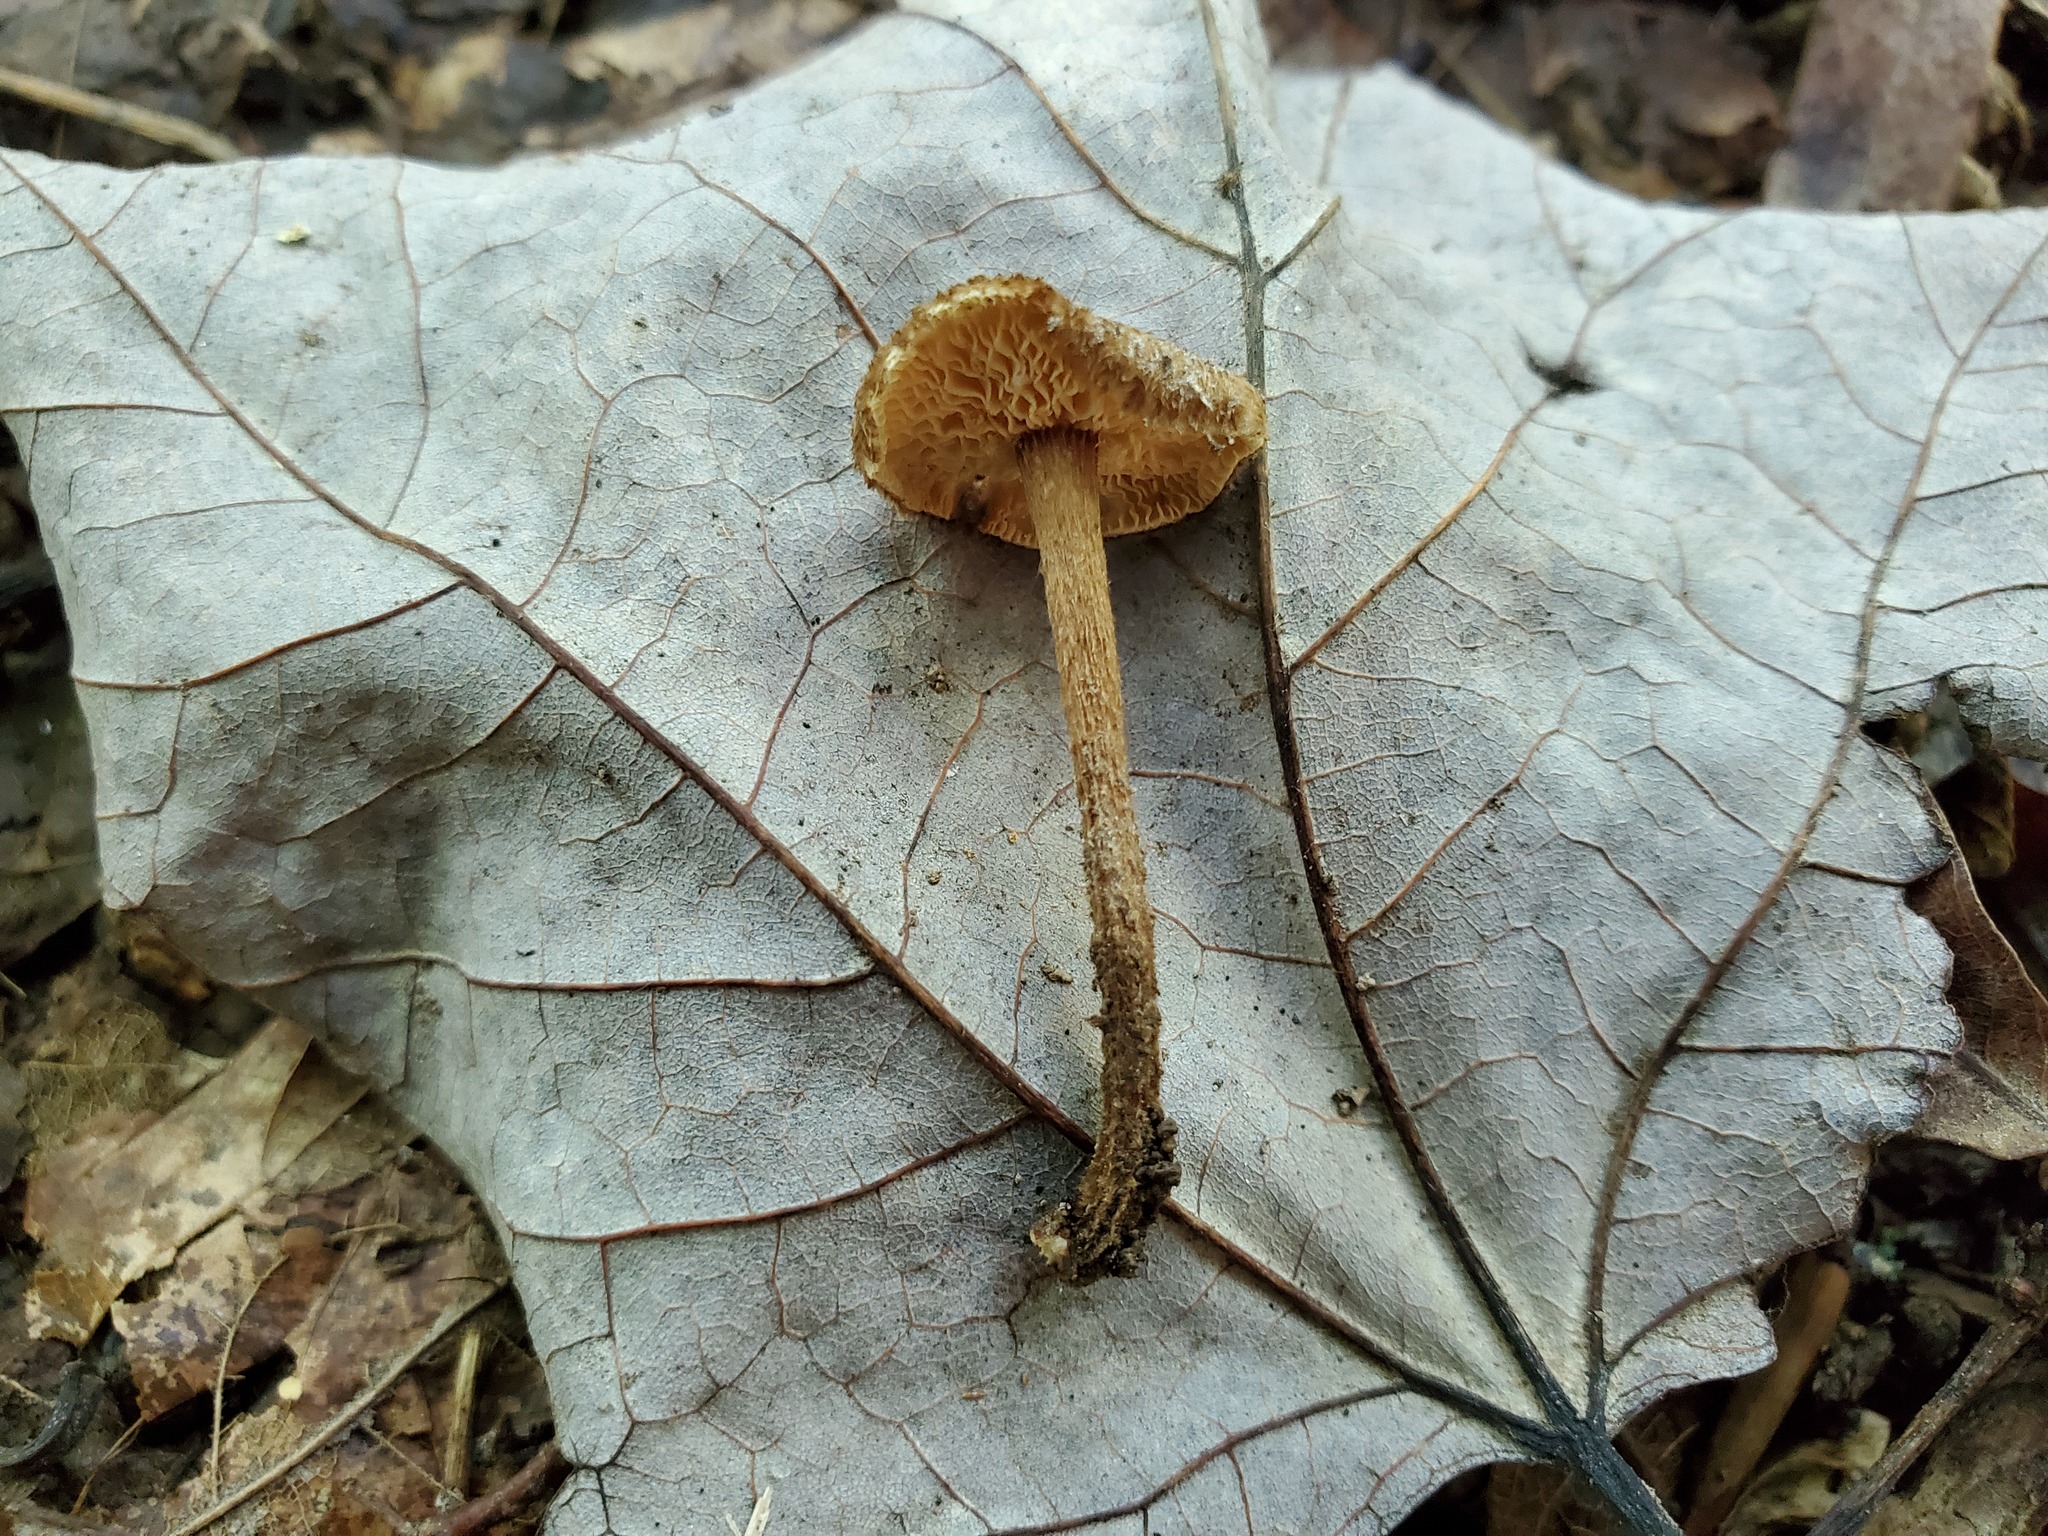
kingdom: Fungi
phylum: Basidiomycota
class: Agaricomycetes
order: Agaricales
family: Tricholomataceae
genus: Collybia
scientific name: Collybia zonata
